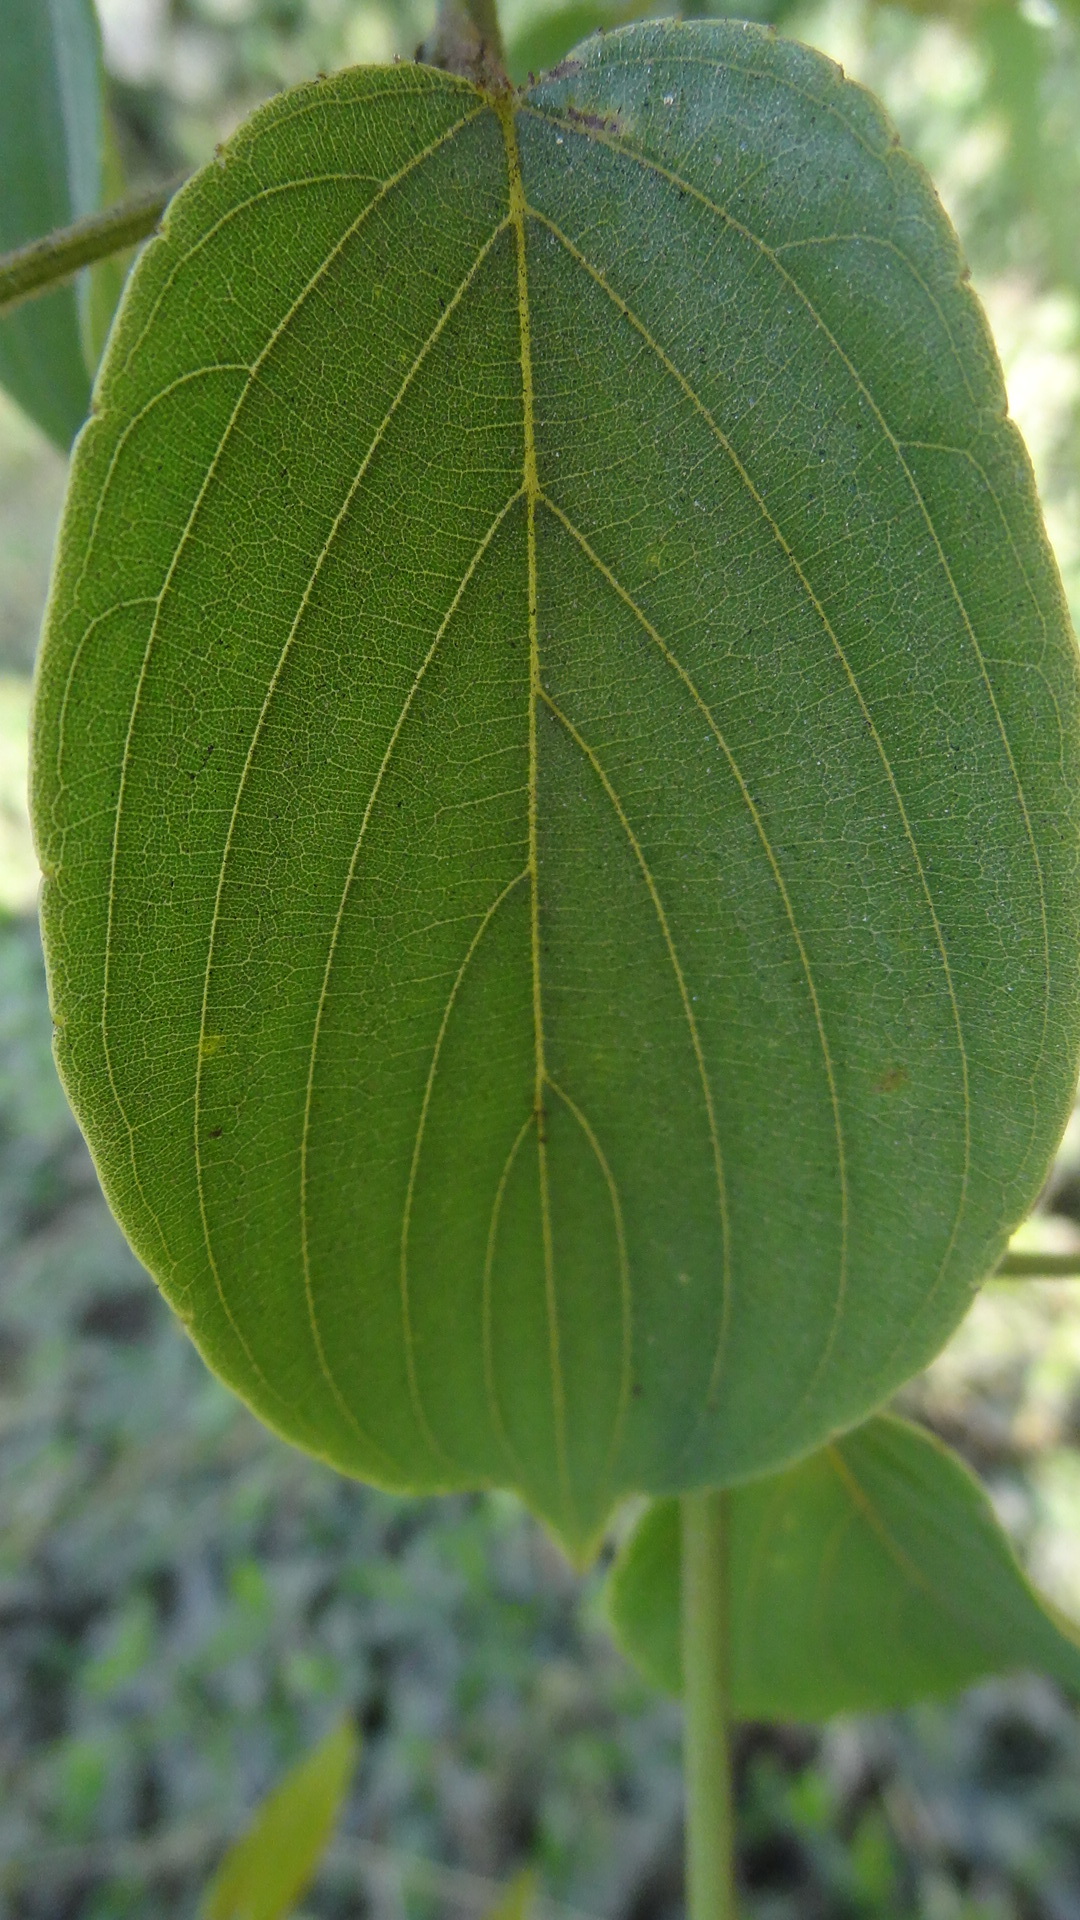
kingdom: Plantae
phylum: Tracheophyta
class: Magnoliopsida
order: Rosales
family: Rhamnaceae
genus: Gouania
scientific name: Gouania microcarpa
